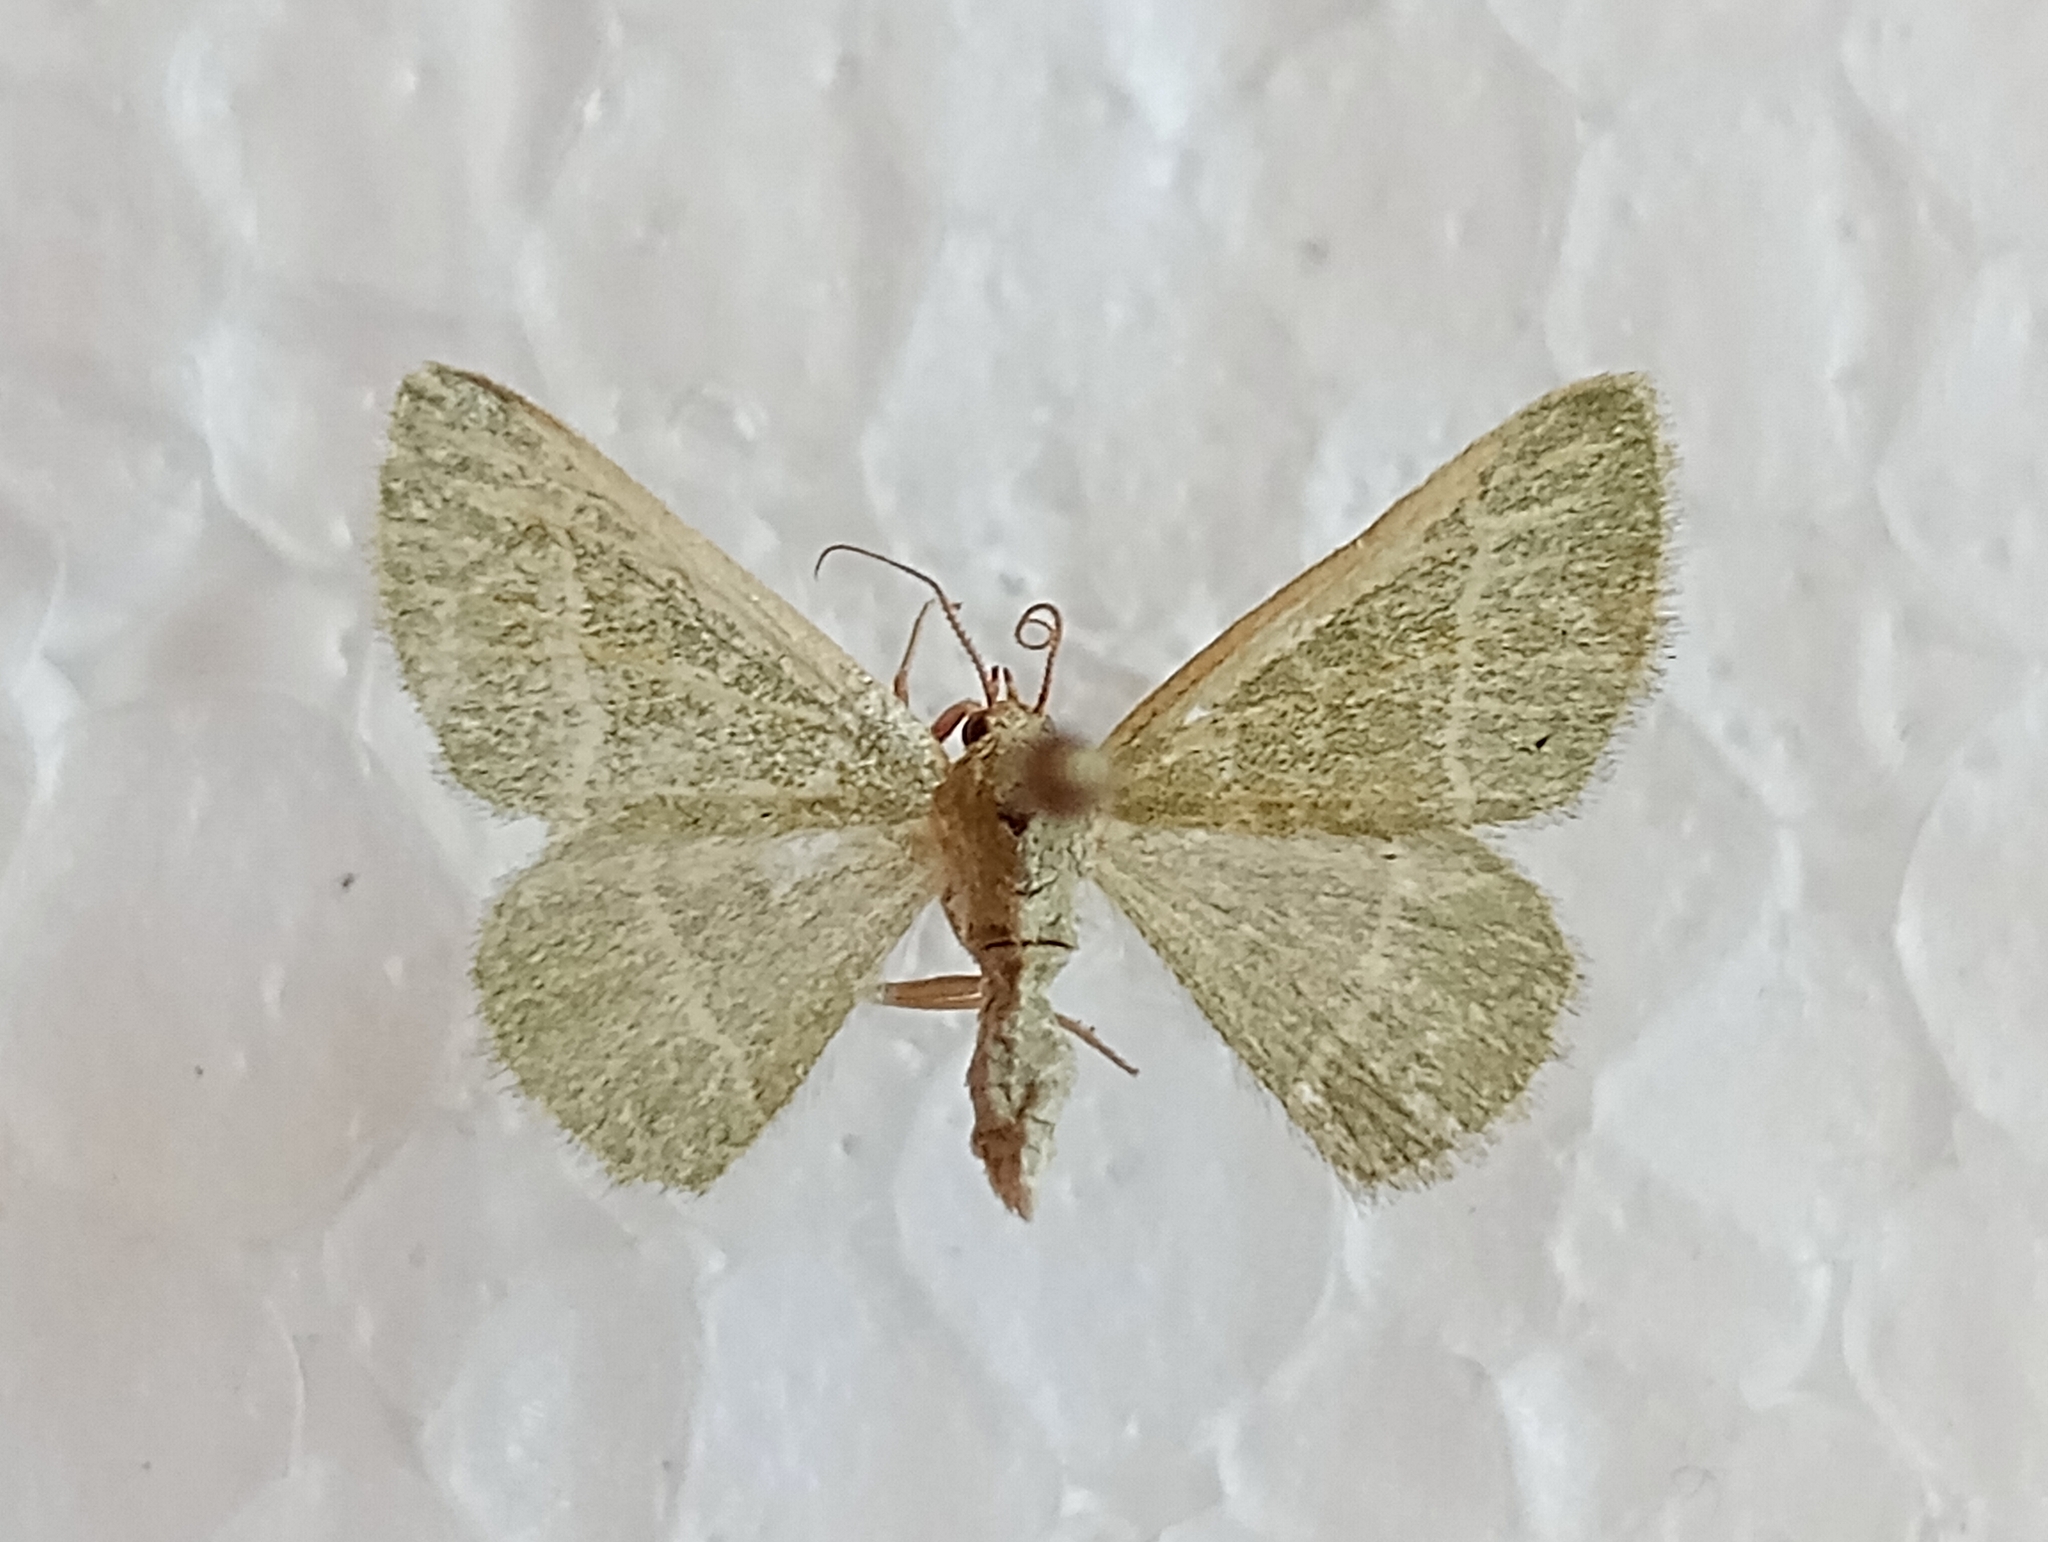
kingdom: Animalia
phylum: Arthropoda
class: Insecta
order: Lepidoptera
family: Geometridae
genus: Microloxia
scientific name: Microloxia herbaria
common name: Herb emerald
